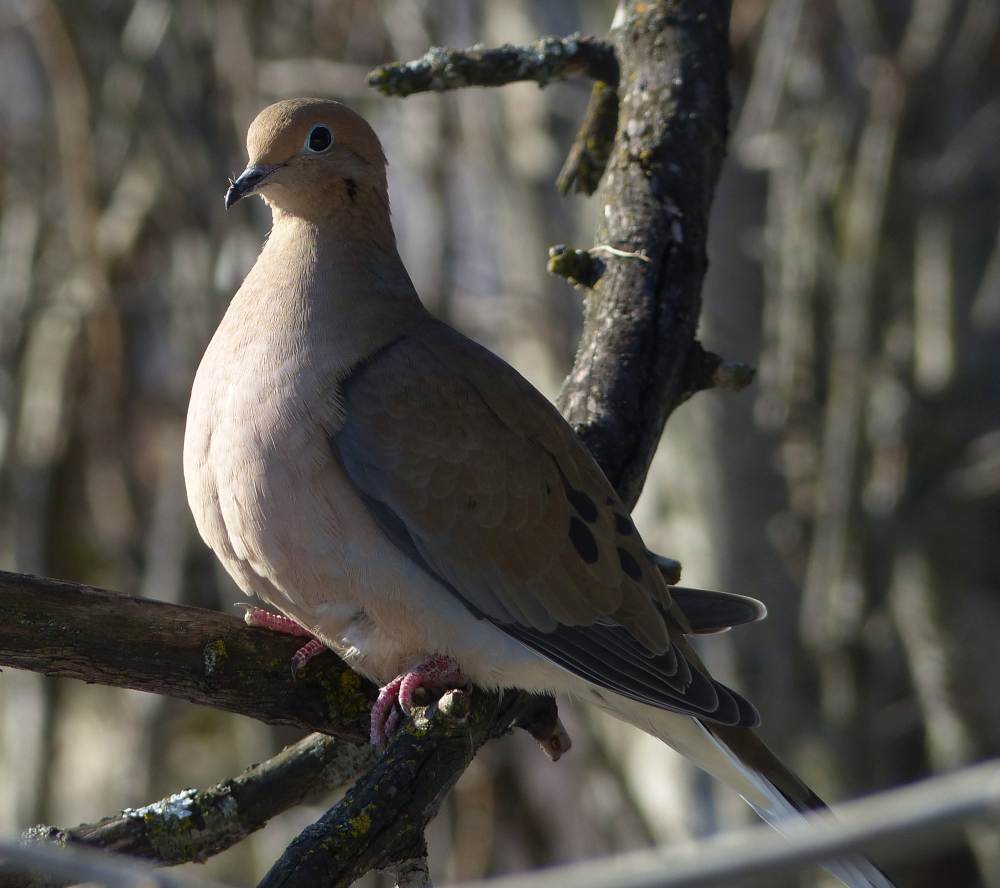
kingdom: Animalia
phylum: Chordata
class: Aves
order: Columbiformes
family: Columbidae
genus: Zenaida
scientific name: Zenaida macroura
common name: Mourning dove
